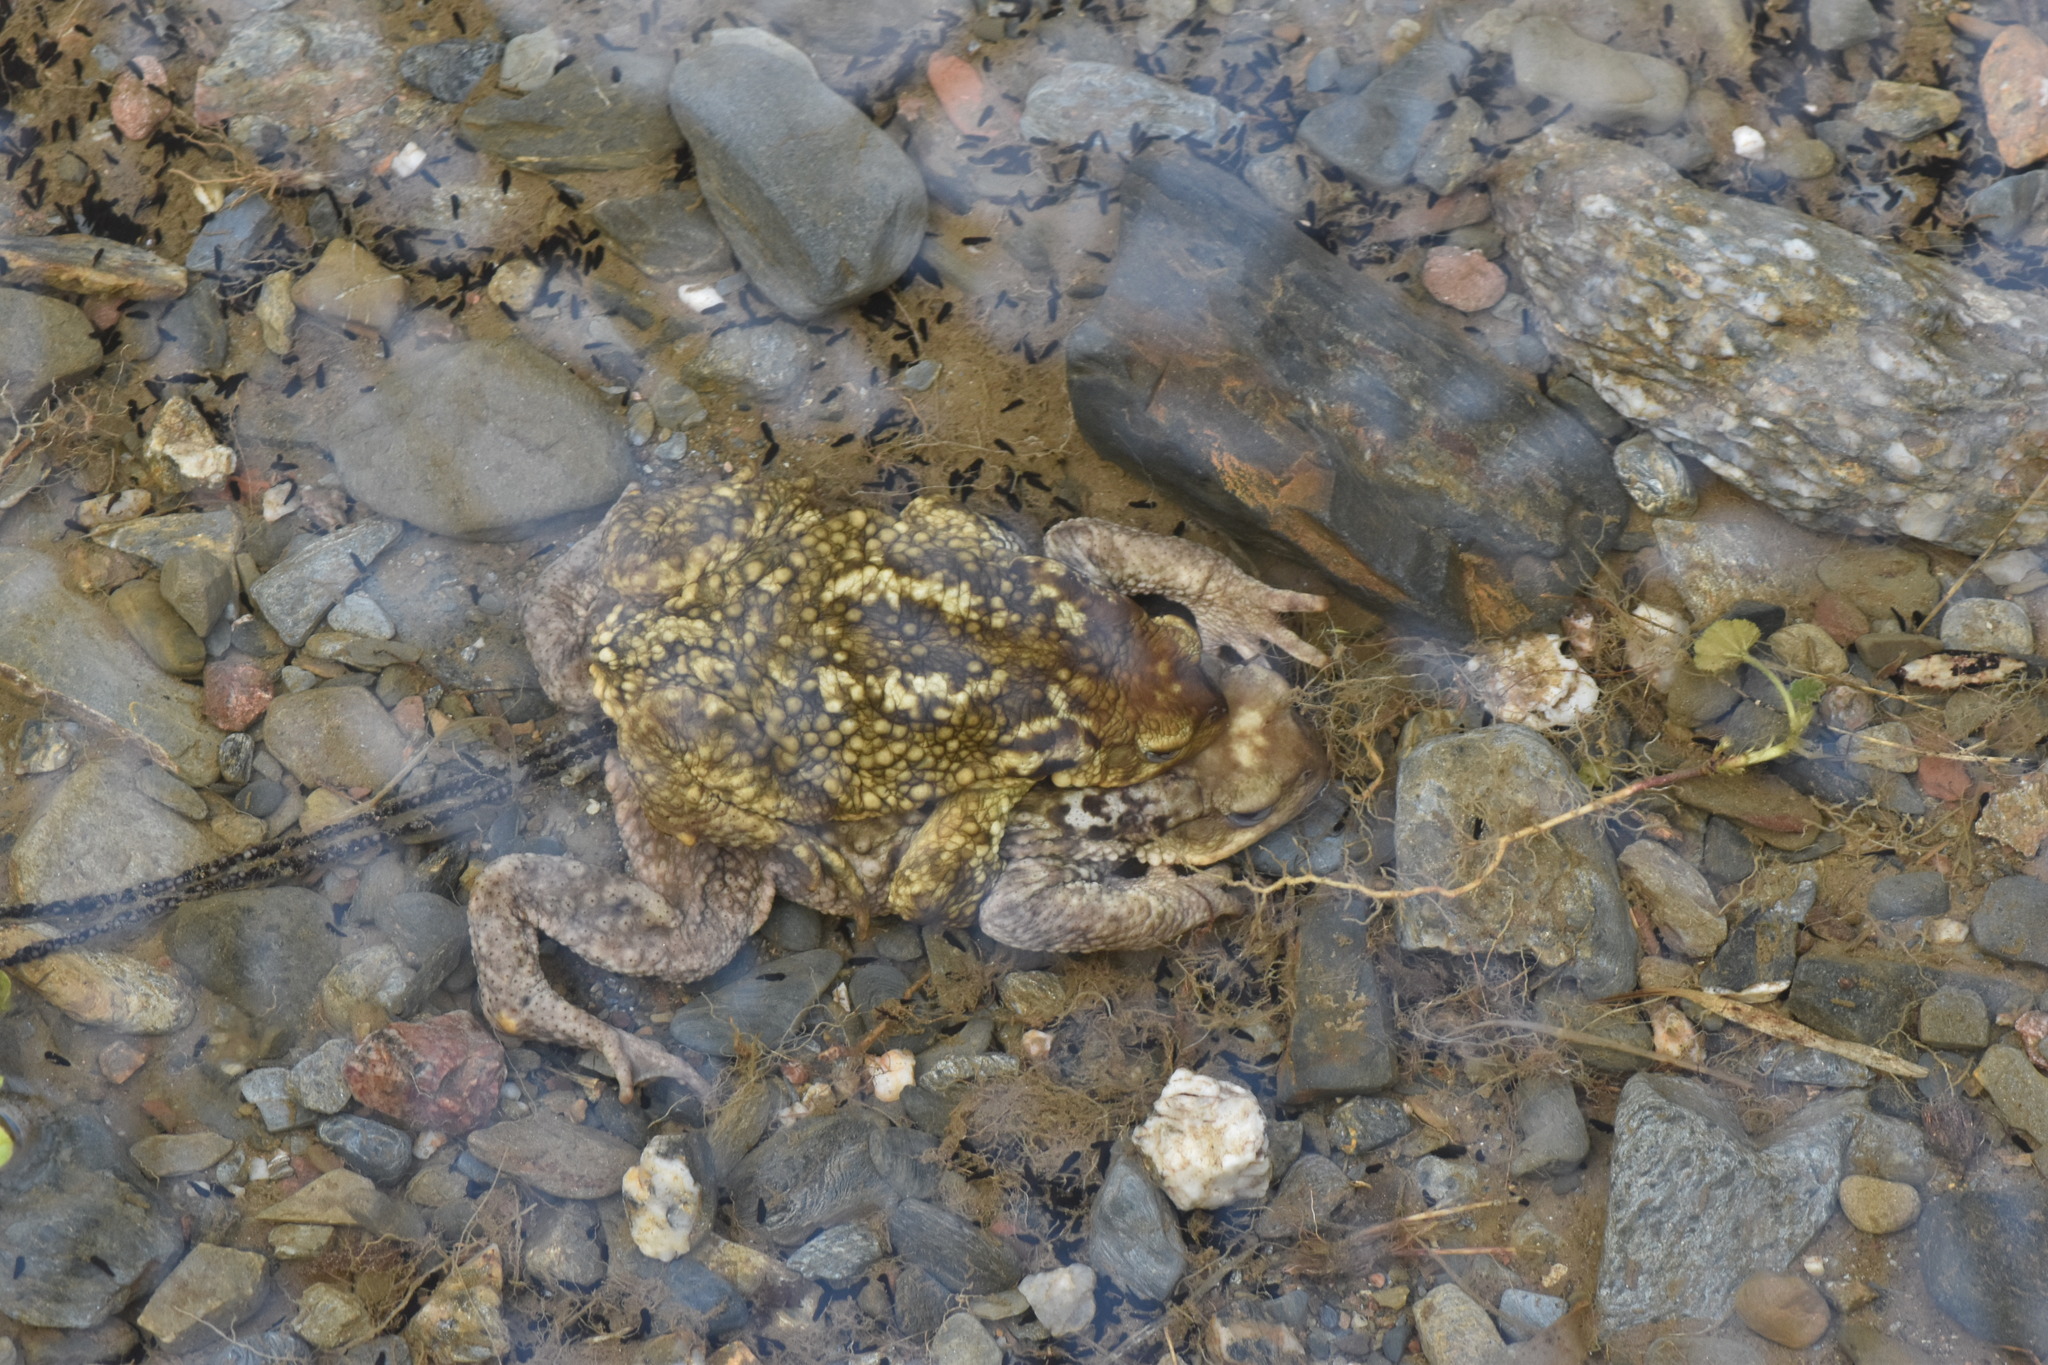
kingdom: Animalia
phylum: Chordata
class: Amphibia
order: Anura
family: Bufonidae
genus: Bufo
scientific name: Bufo spinosus
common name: Western common toad
